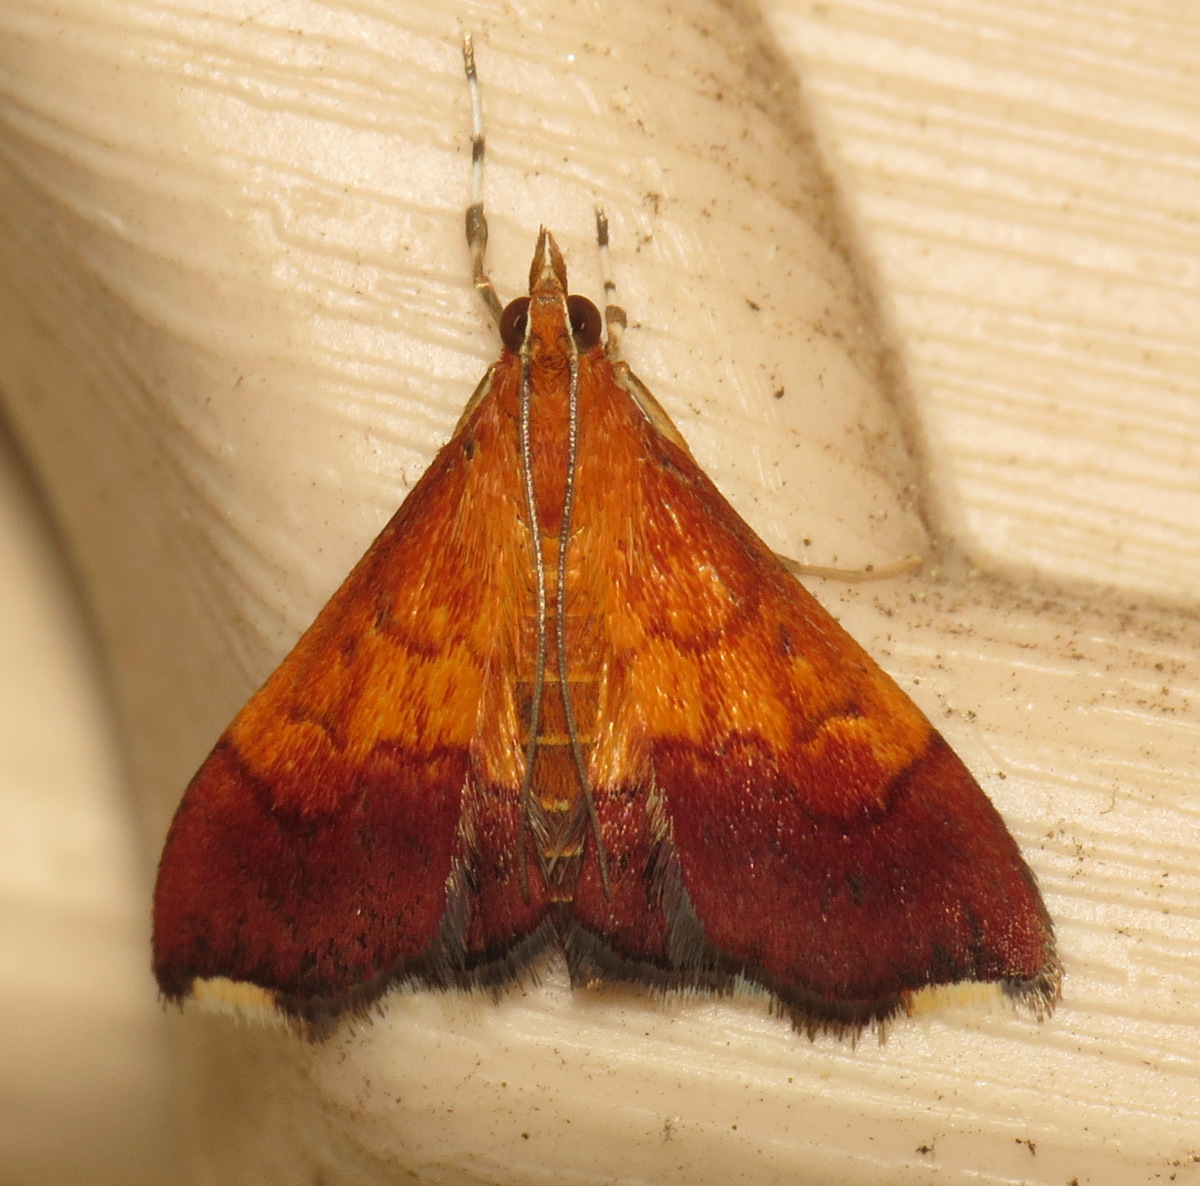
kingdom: Animalia
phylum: Arthropoda
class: Insecta
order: Lepidoptera
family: Crambidae
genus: Pyrausta
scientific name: Pyrausta bicoloralis
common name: Bicolored pyrausta moth
